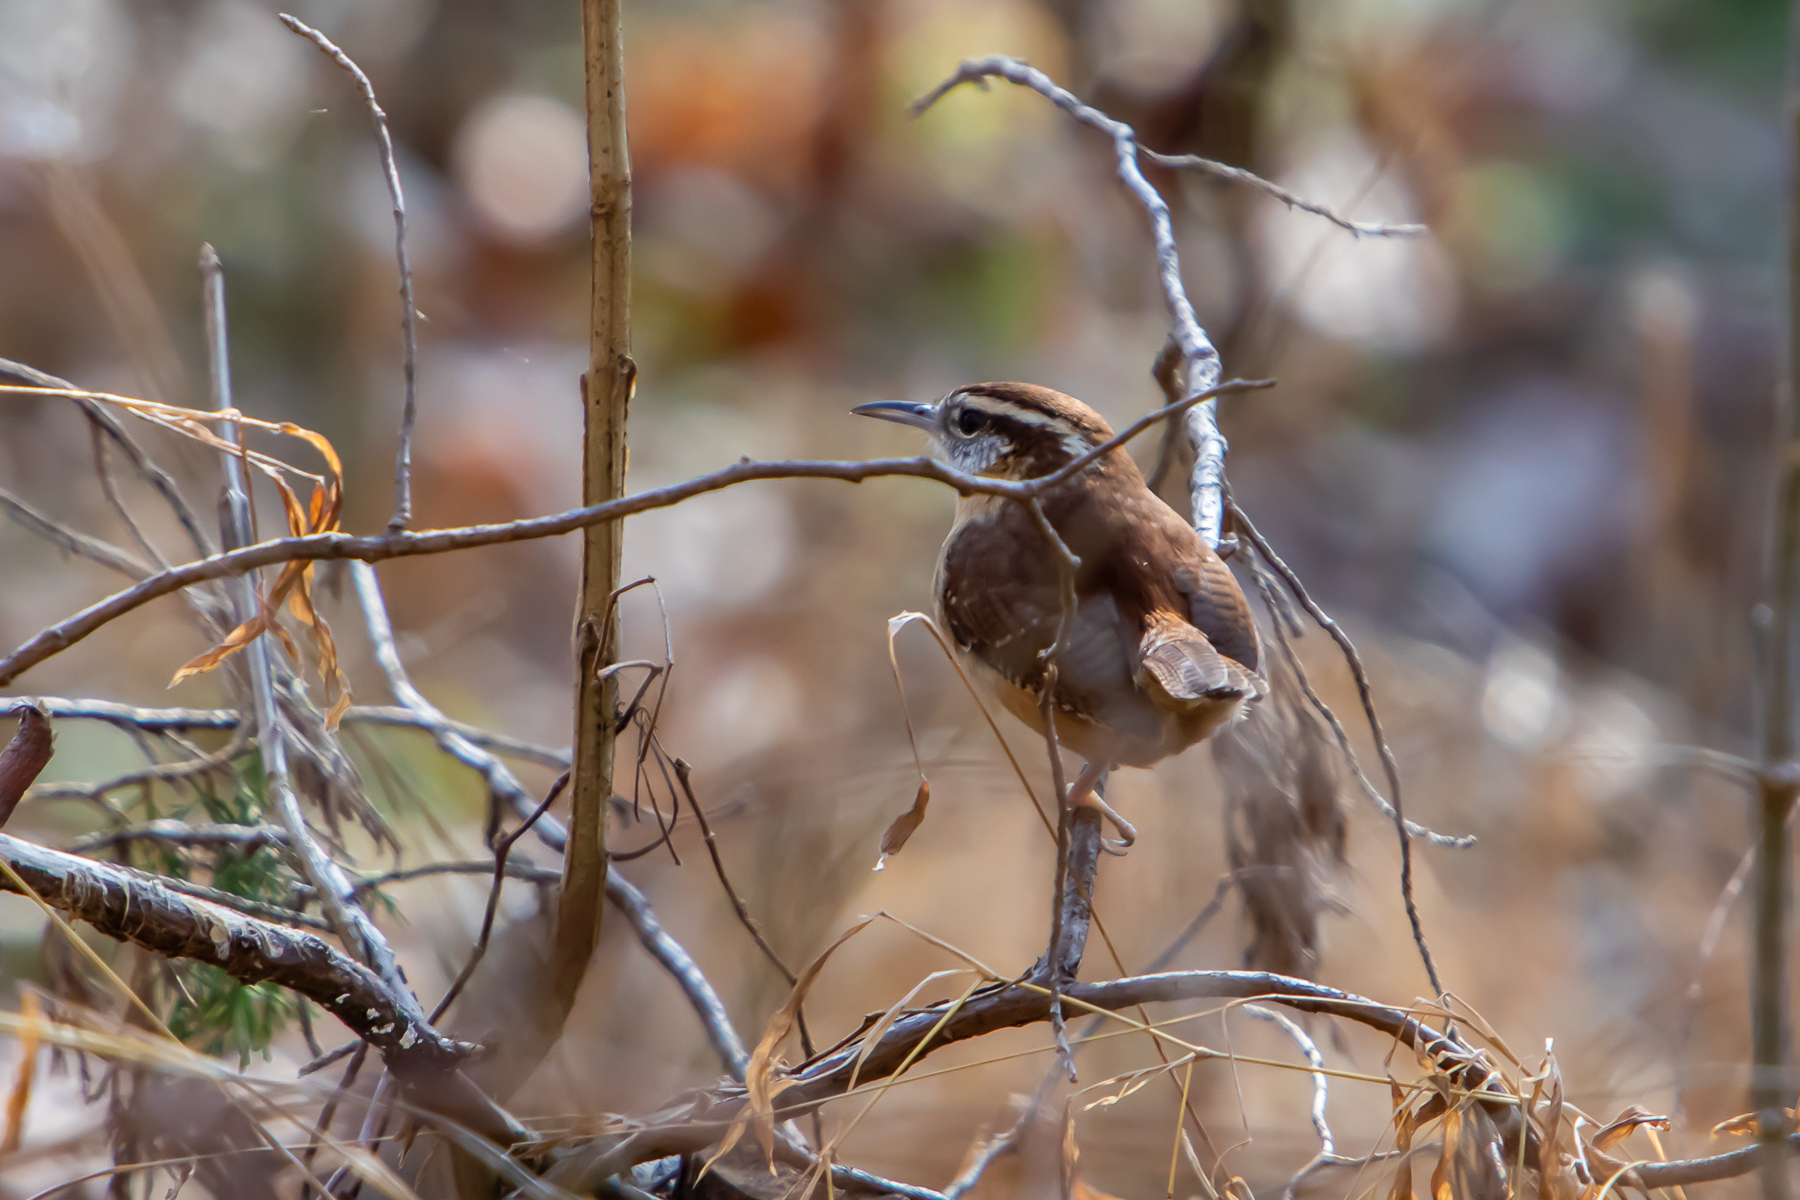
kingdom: Animalia
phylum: Chordata
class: Aves
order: Passeriformes
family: Troglodytidae
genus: Thryothorus
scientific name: Thryothorus ludovicianus
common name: Carolina wren
